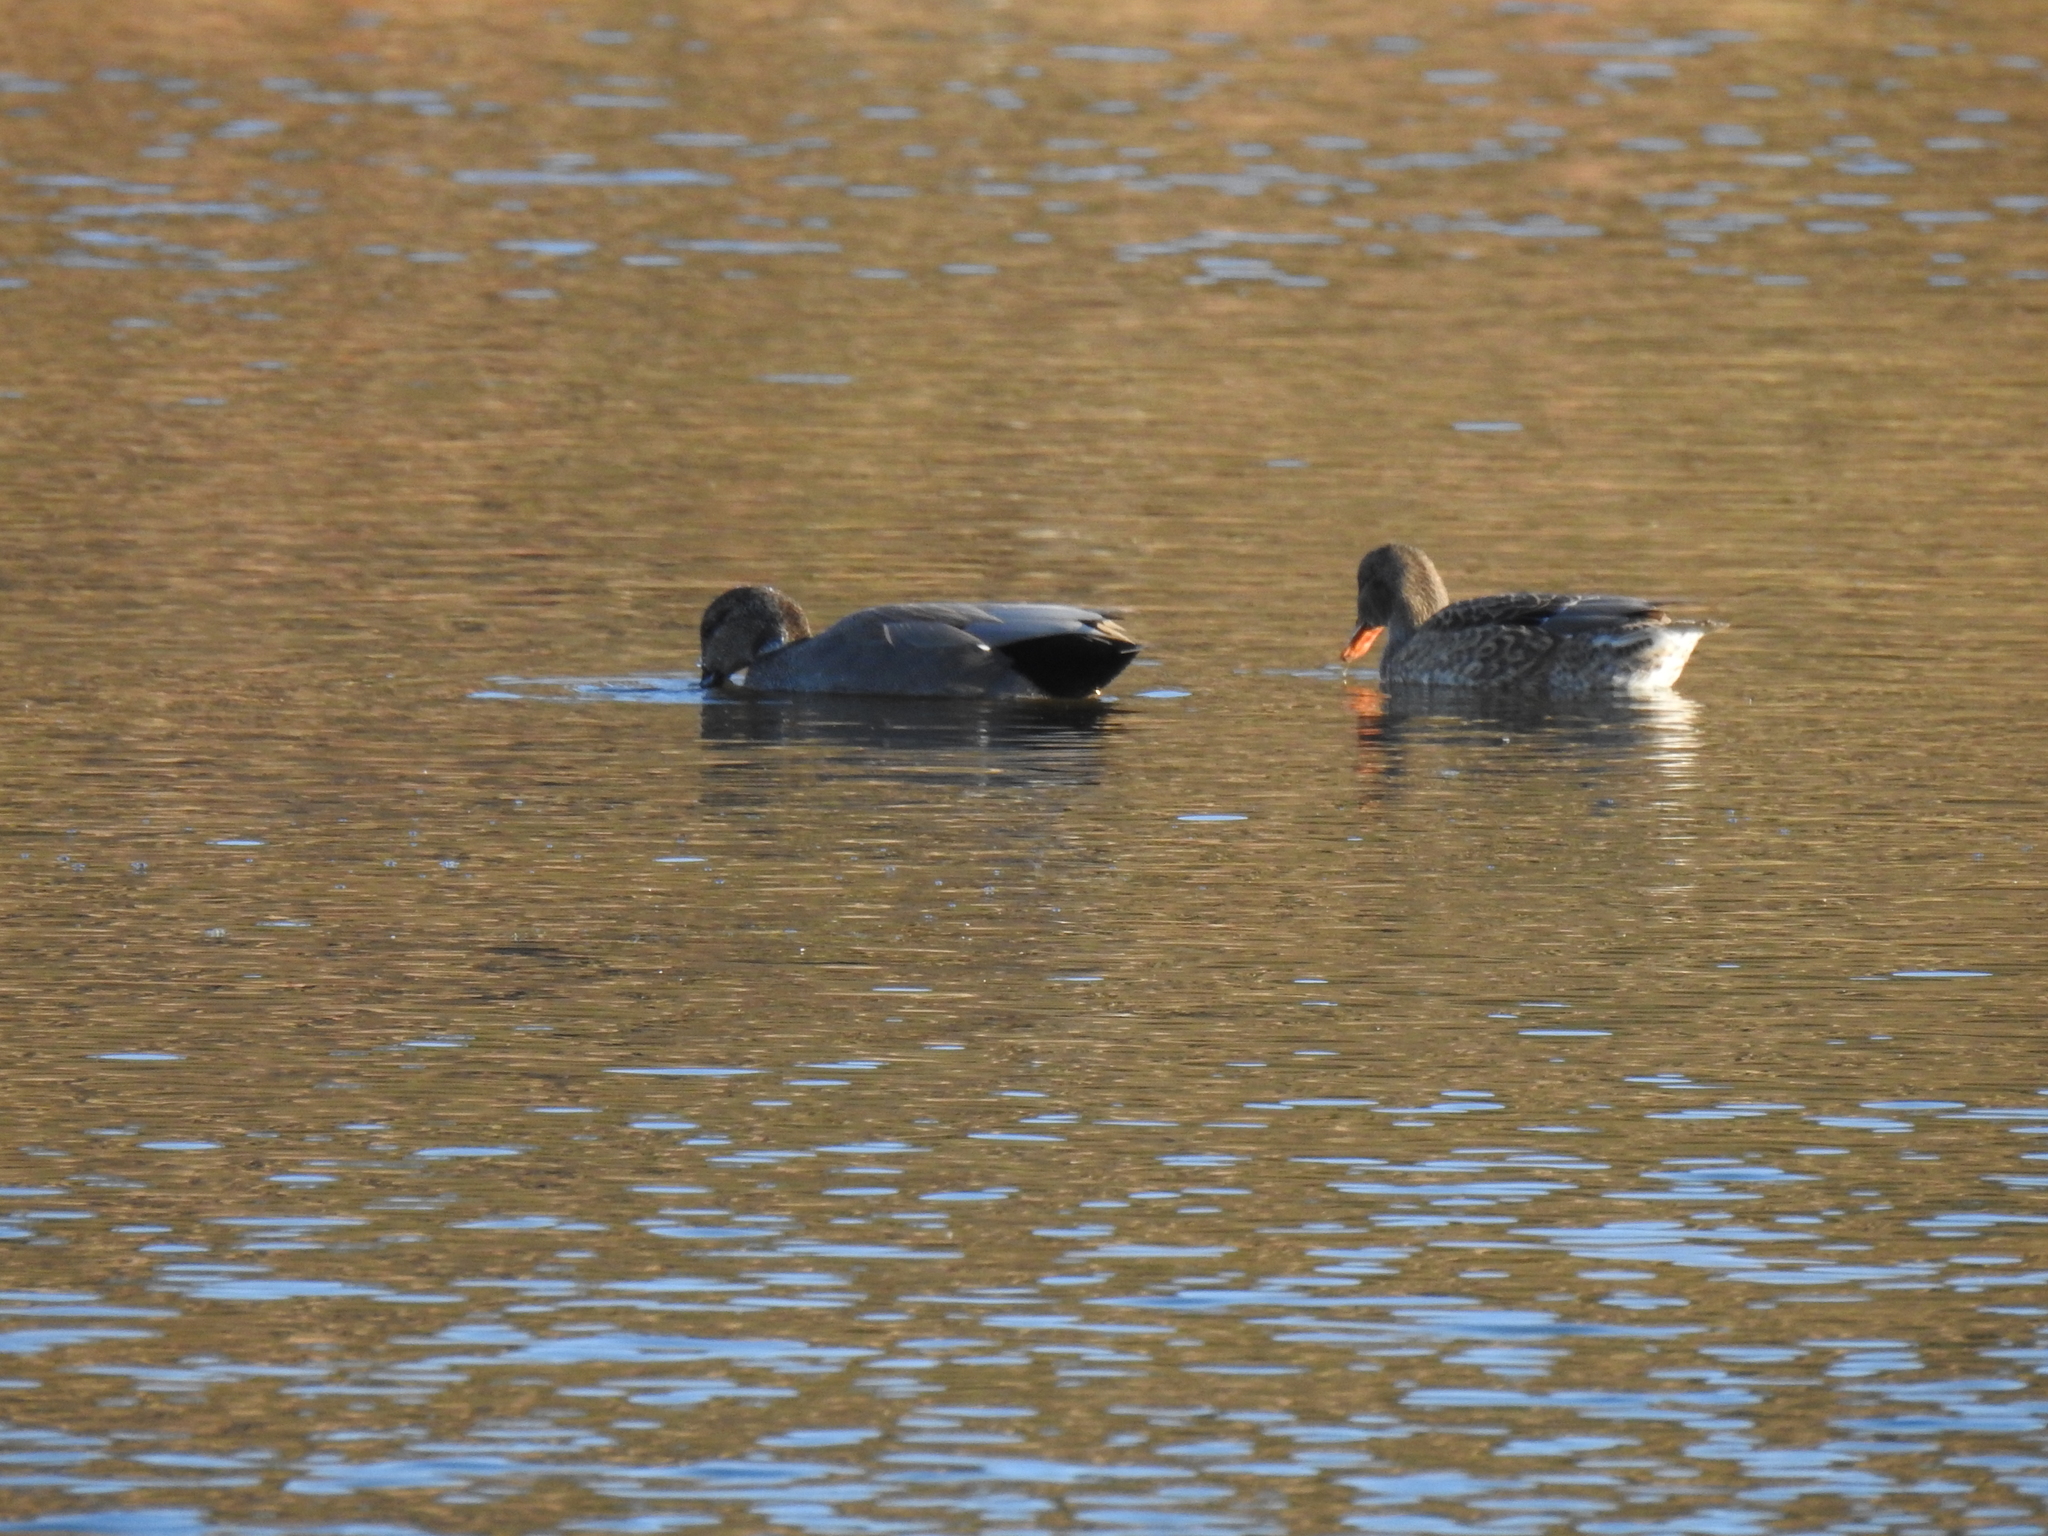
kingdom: Animalia
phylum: Chordata
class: Aves
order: Anseriformes
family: Anatidae
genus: Mareca
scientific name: Mareca strepera
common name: Gadwall
